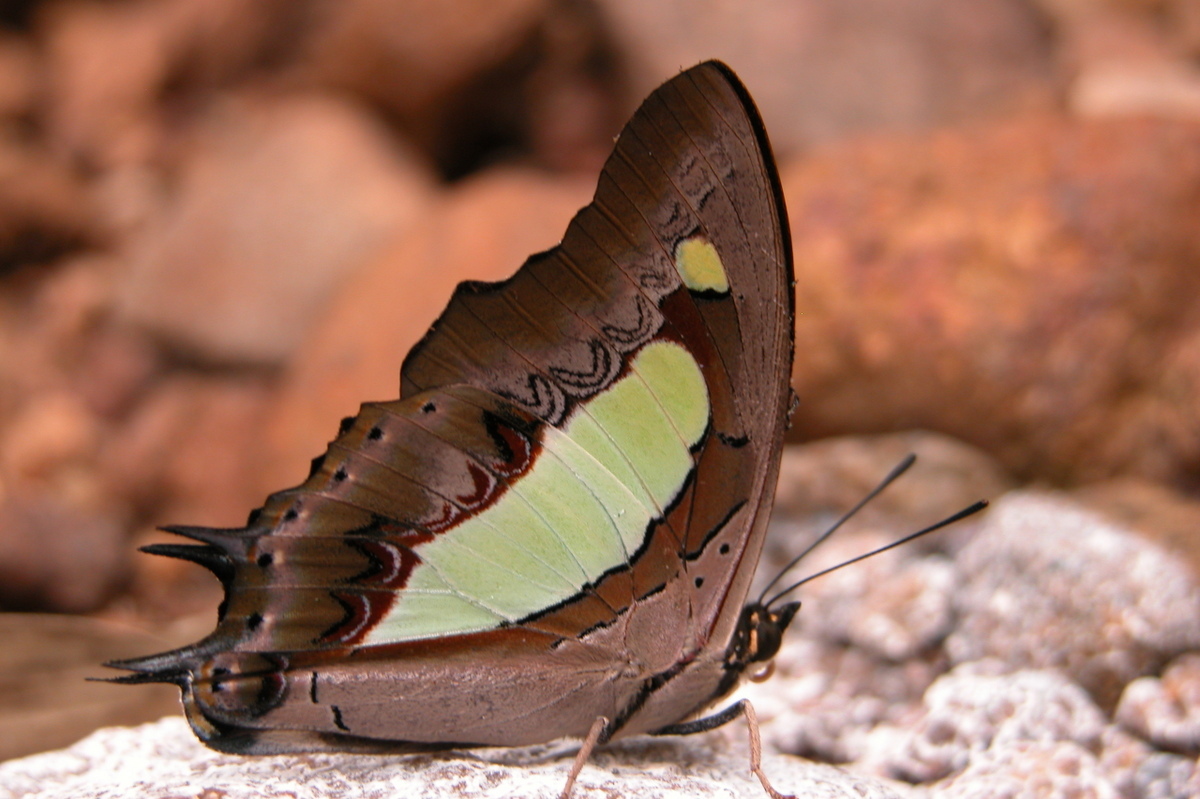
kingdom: Animalia
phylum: Arthropoda
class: Insecta
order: Lepidoptera
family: Nymphalidae
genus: Polyura
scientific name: Polyura
